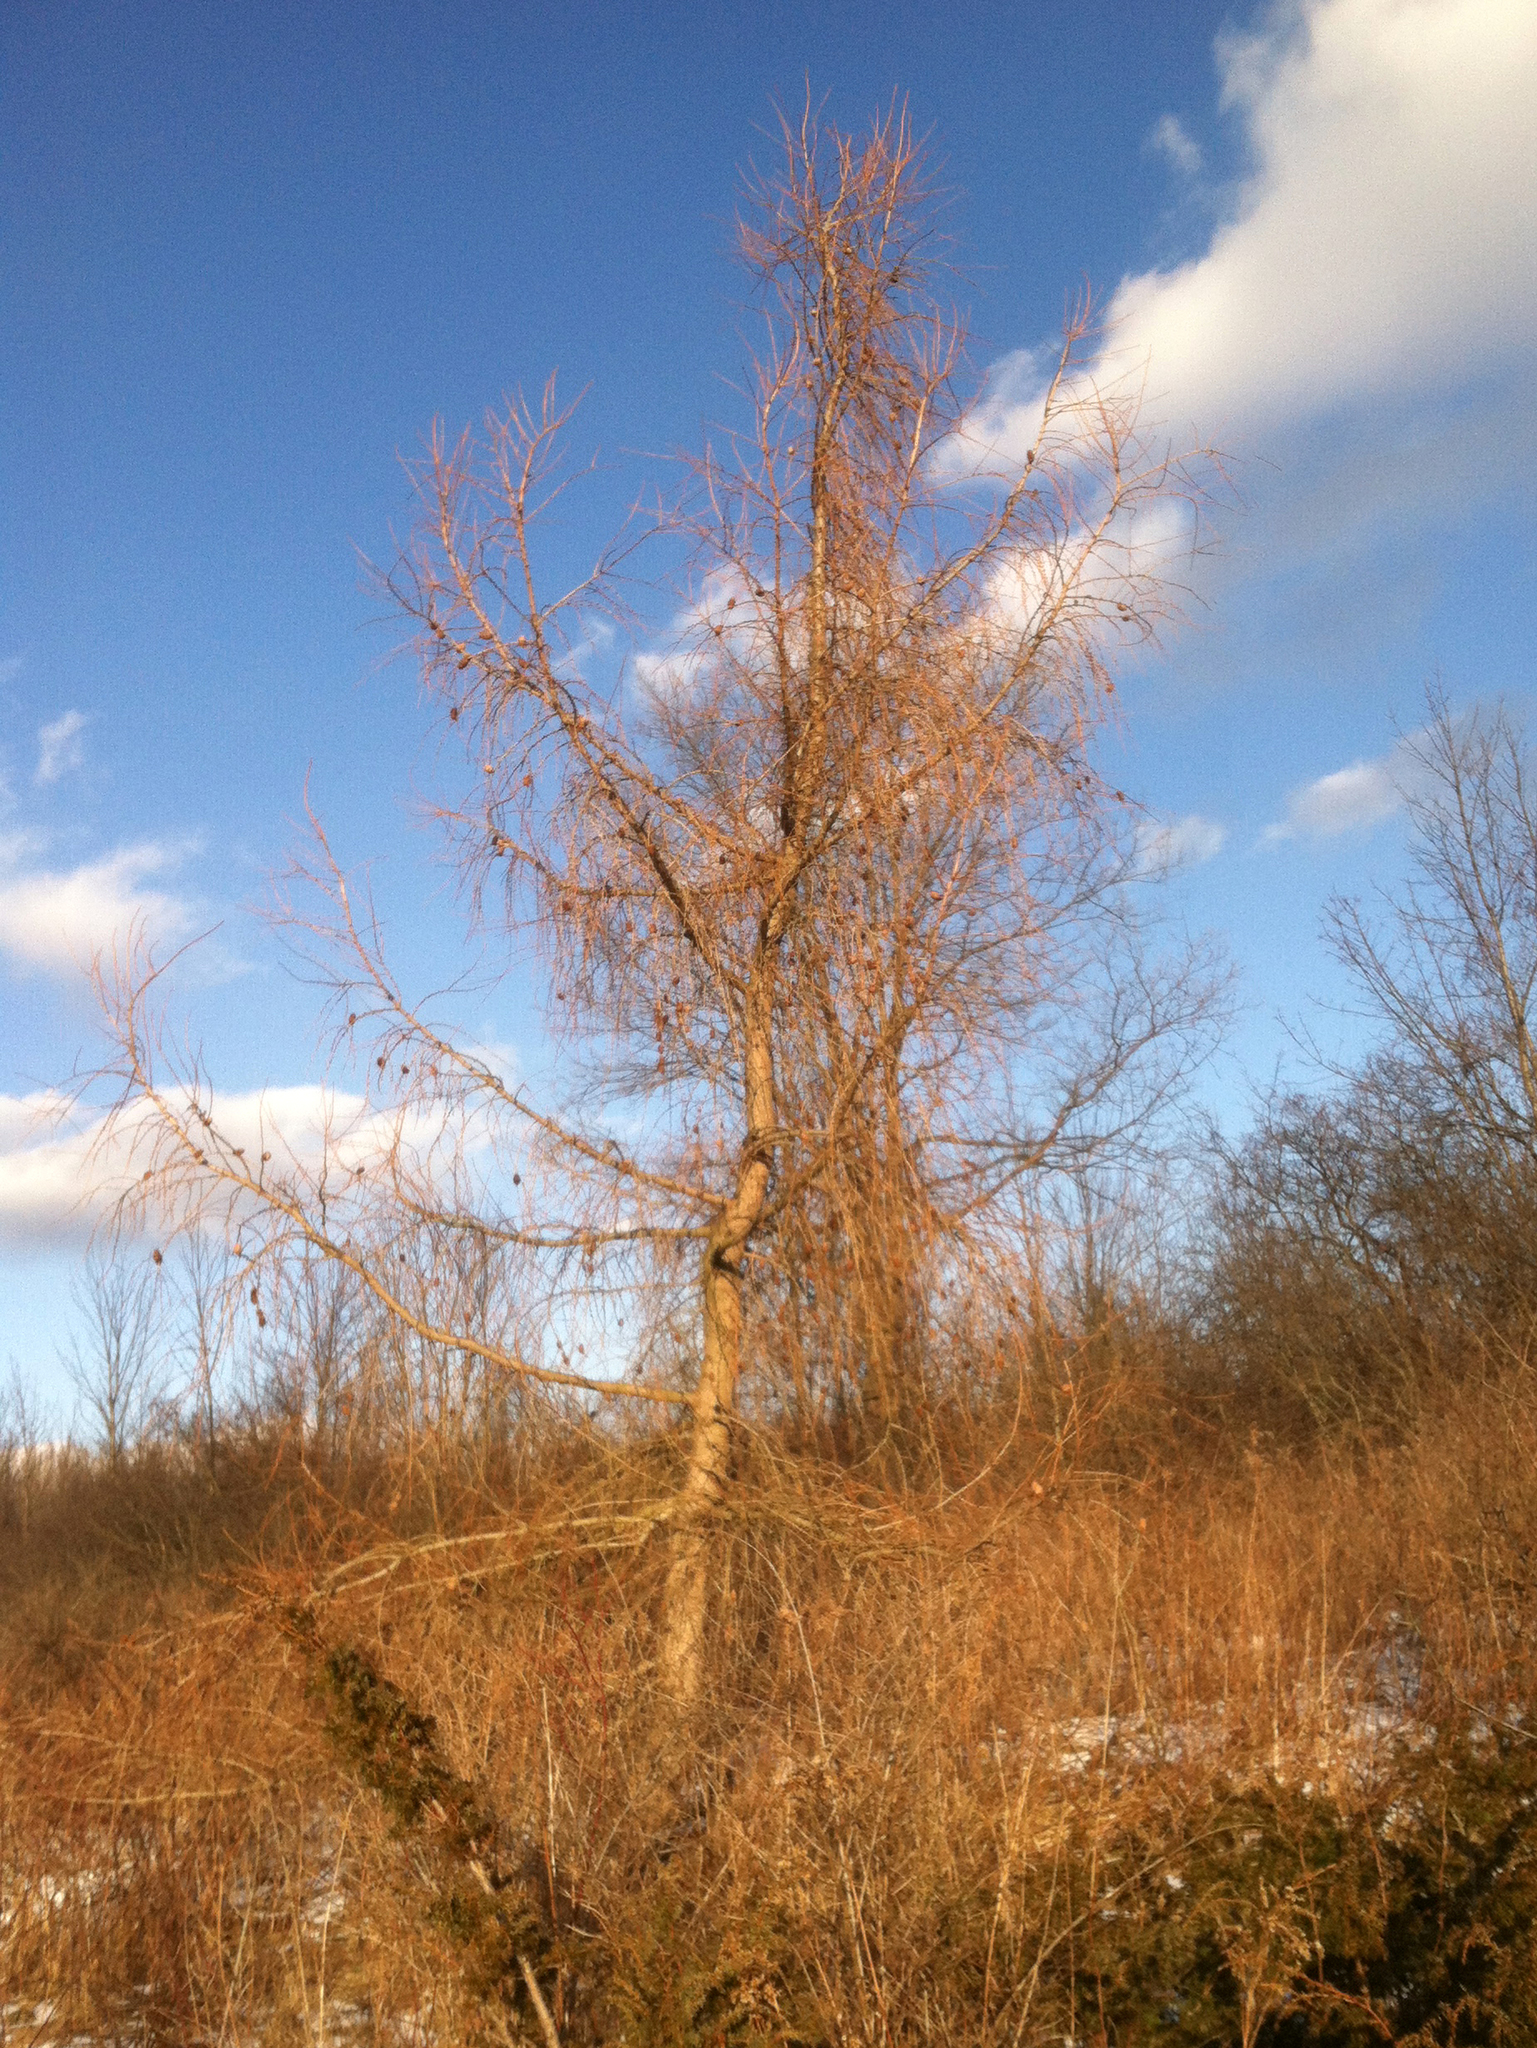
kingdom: Plantae
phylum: Tracheophyta
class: Pinopsida
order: Pinales
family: Pinaceae
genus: Larix
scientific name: Larix decidua
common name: European larch
